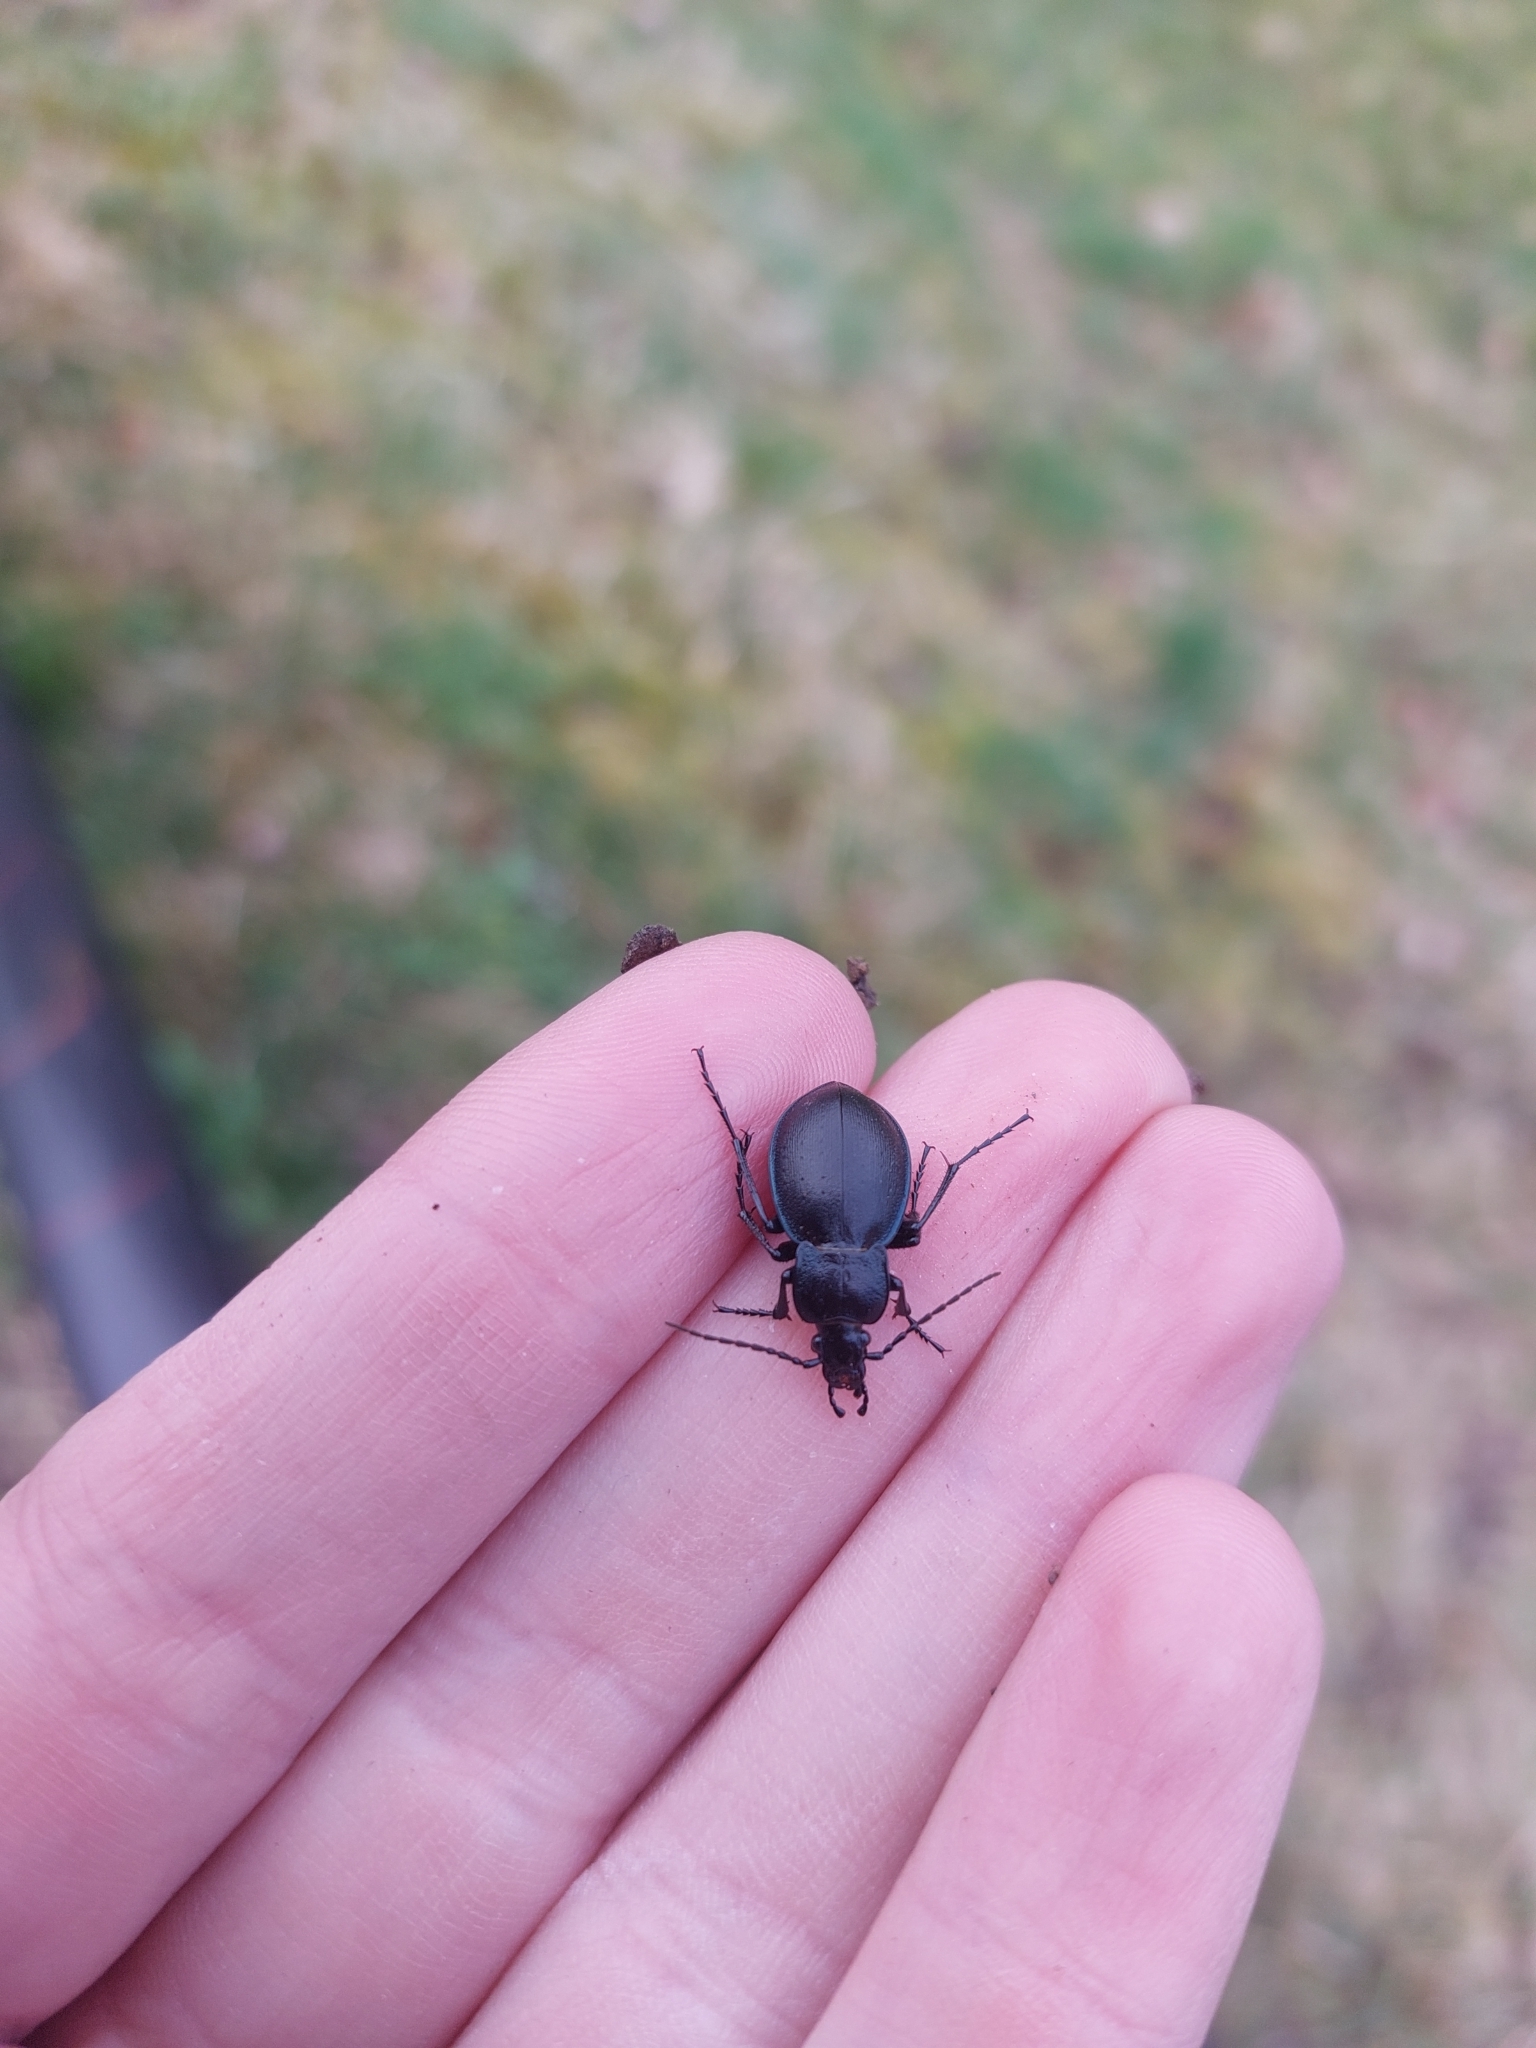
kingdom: Animalia
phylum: Arthropoda
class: Insecta
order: Coleoptera
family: Carabidae
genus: Carabus
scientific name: Carabus convexus
